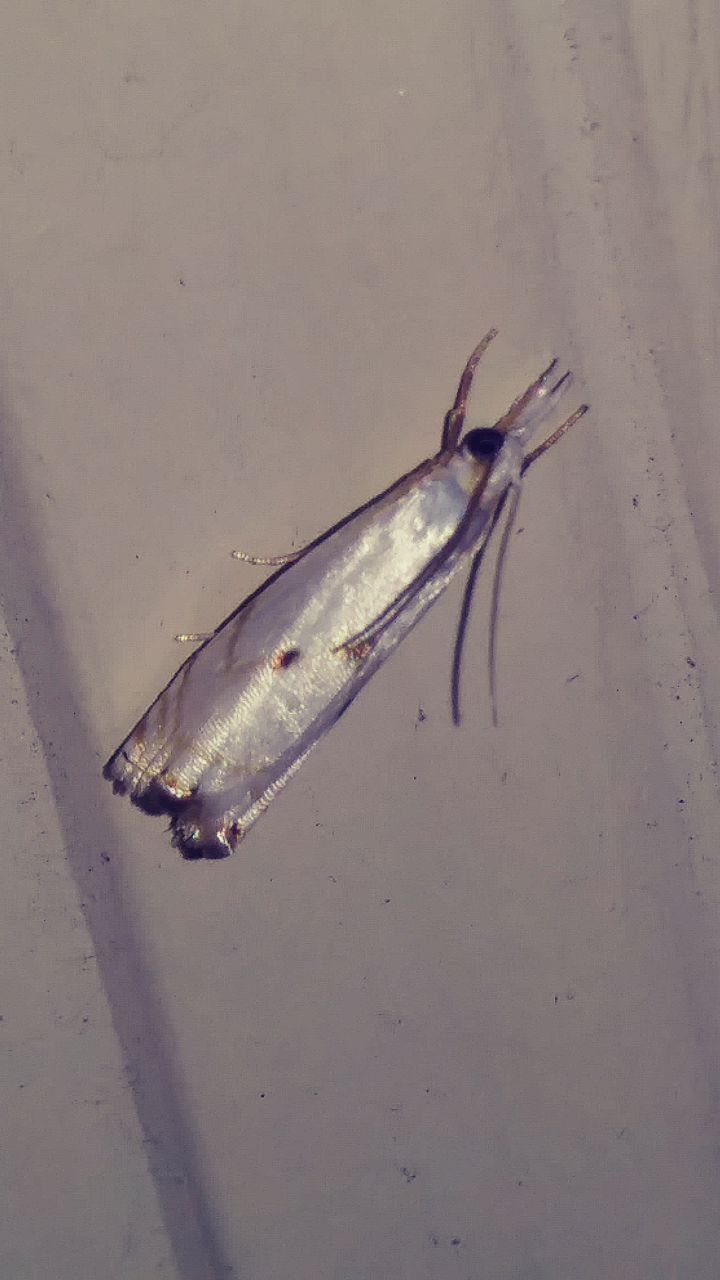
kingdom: Animalia
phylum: Arthropoda
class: Insecta
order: Lepidoptera
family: Crambidae
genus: Microcrambus
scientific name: Microcrambus biguttellus
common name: Gold-stripe grass-veneer moth
